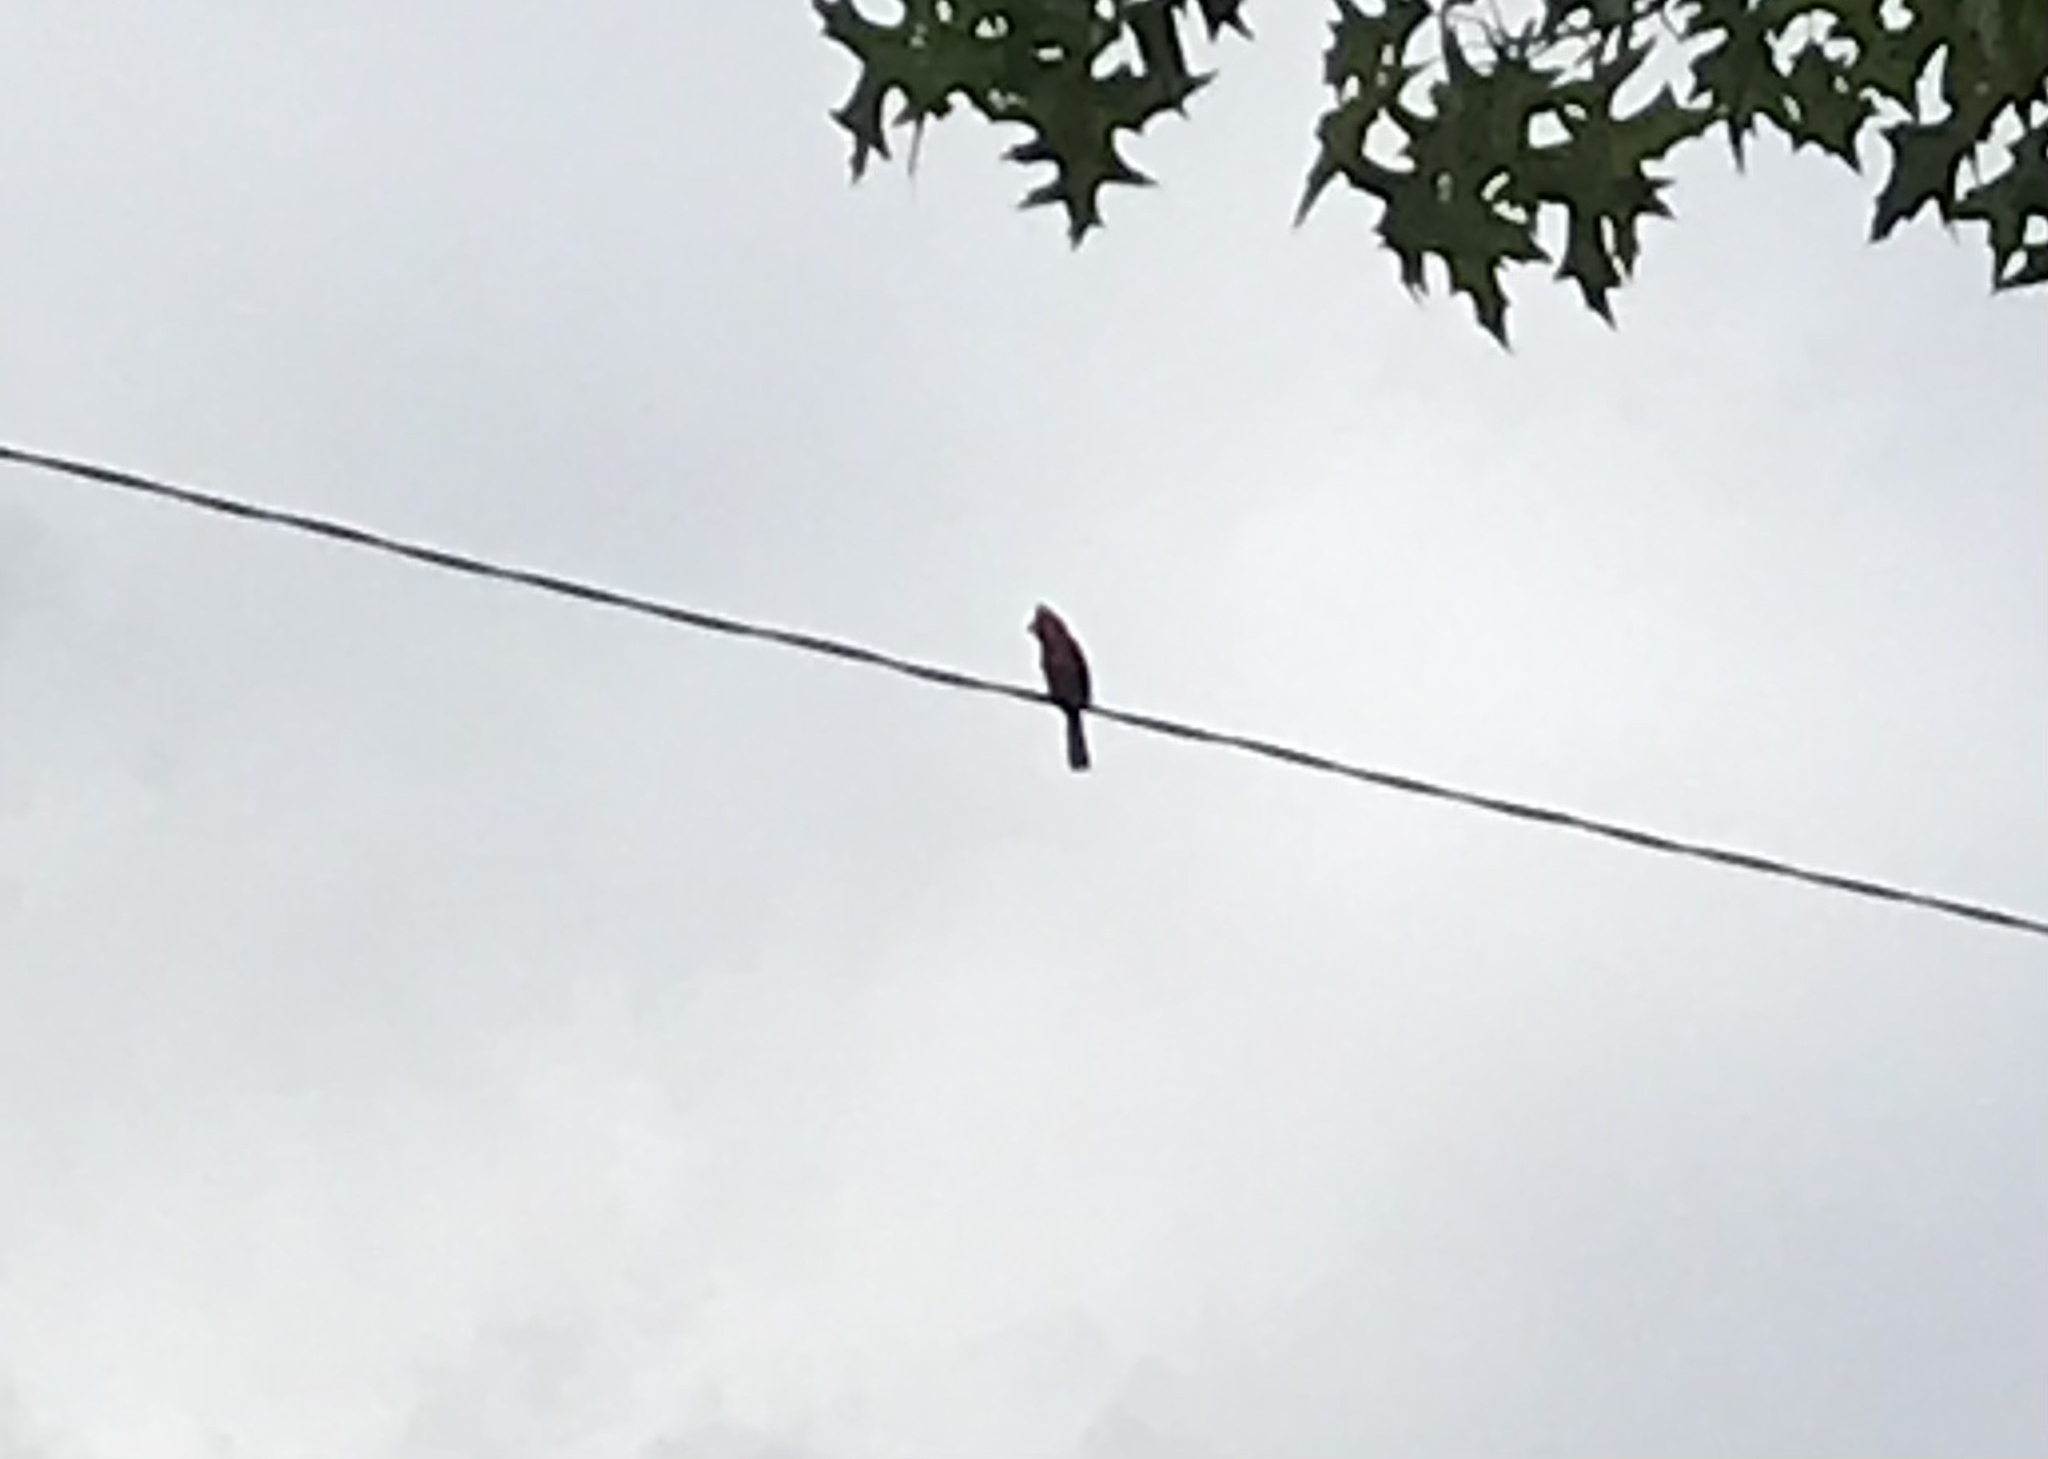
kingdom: Animalia
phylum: Chordata
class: Aves
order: Passeriformes
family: Cardinalidae
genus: Cardinalis
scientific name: Cardinalis cardinalis
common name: Northern cardinal
